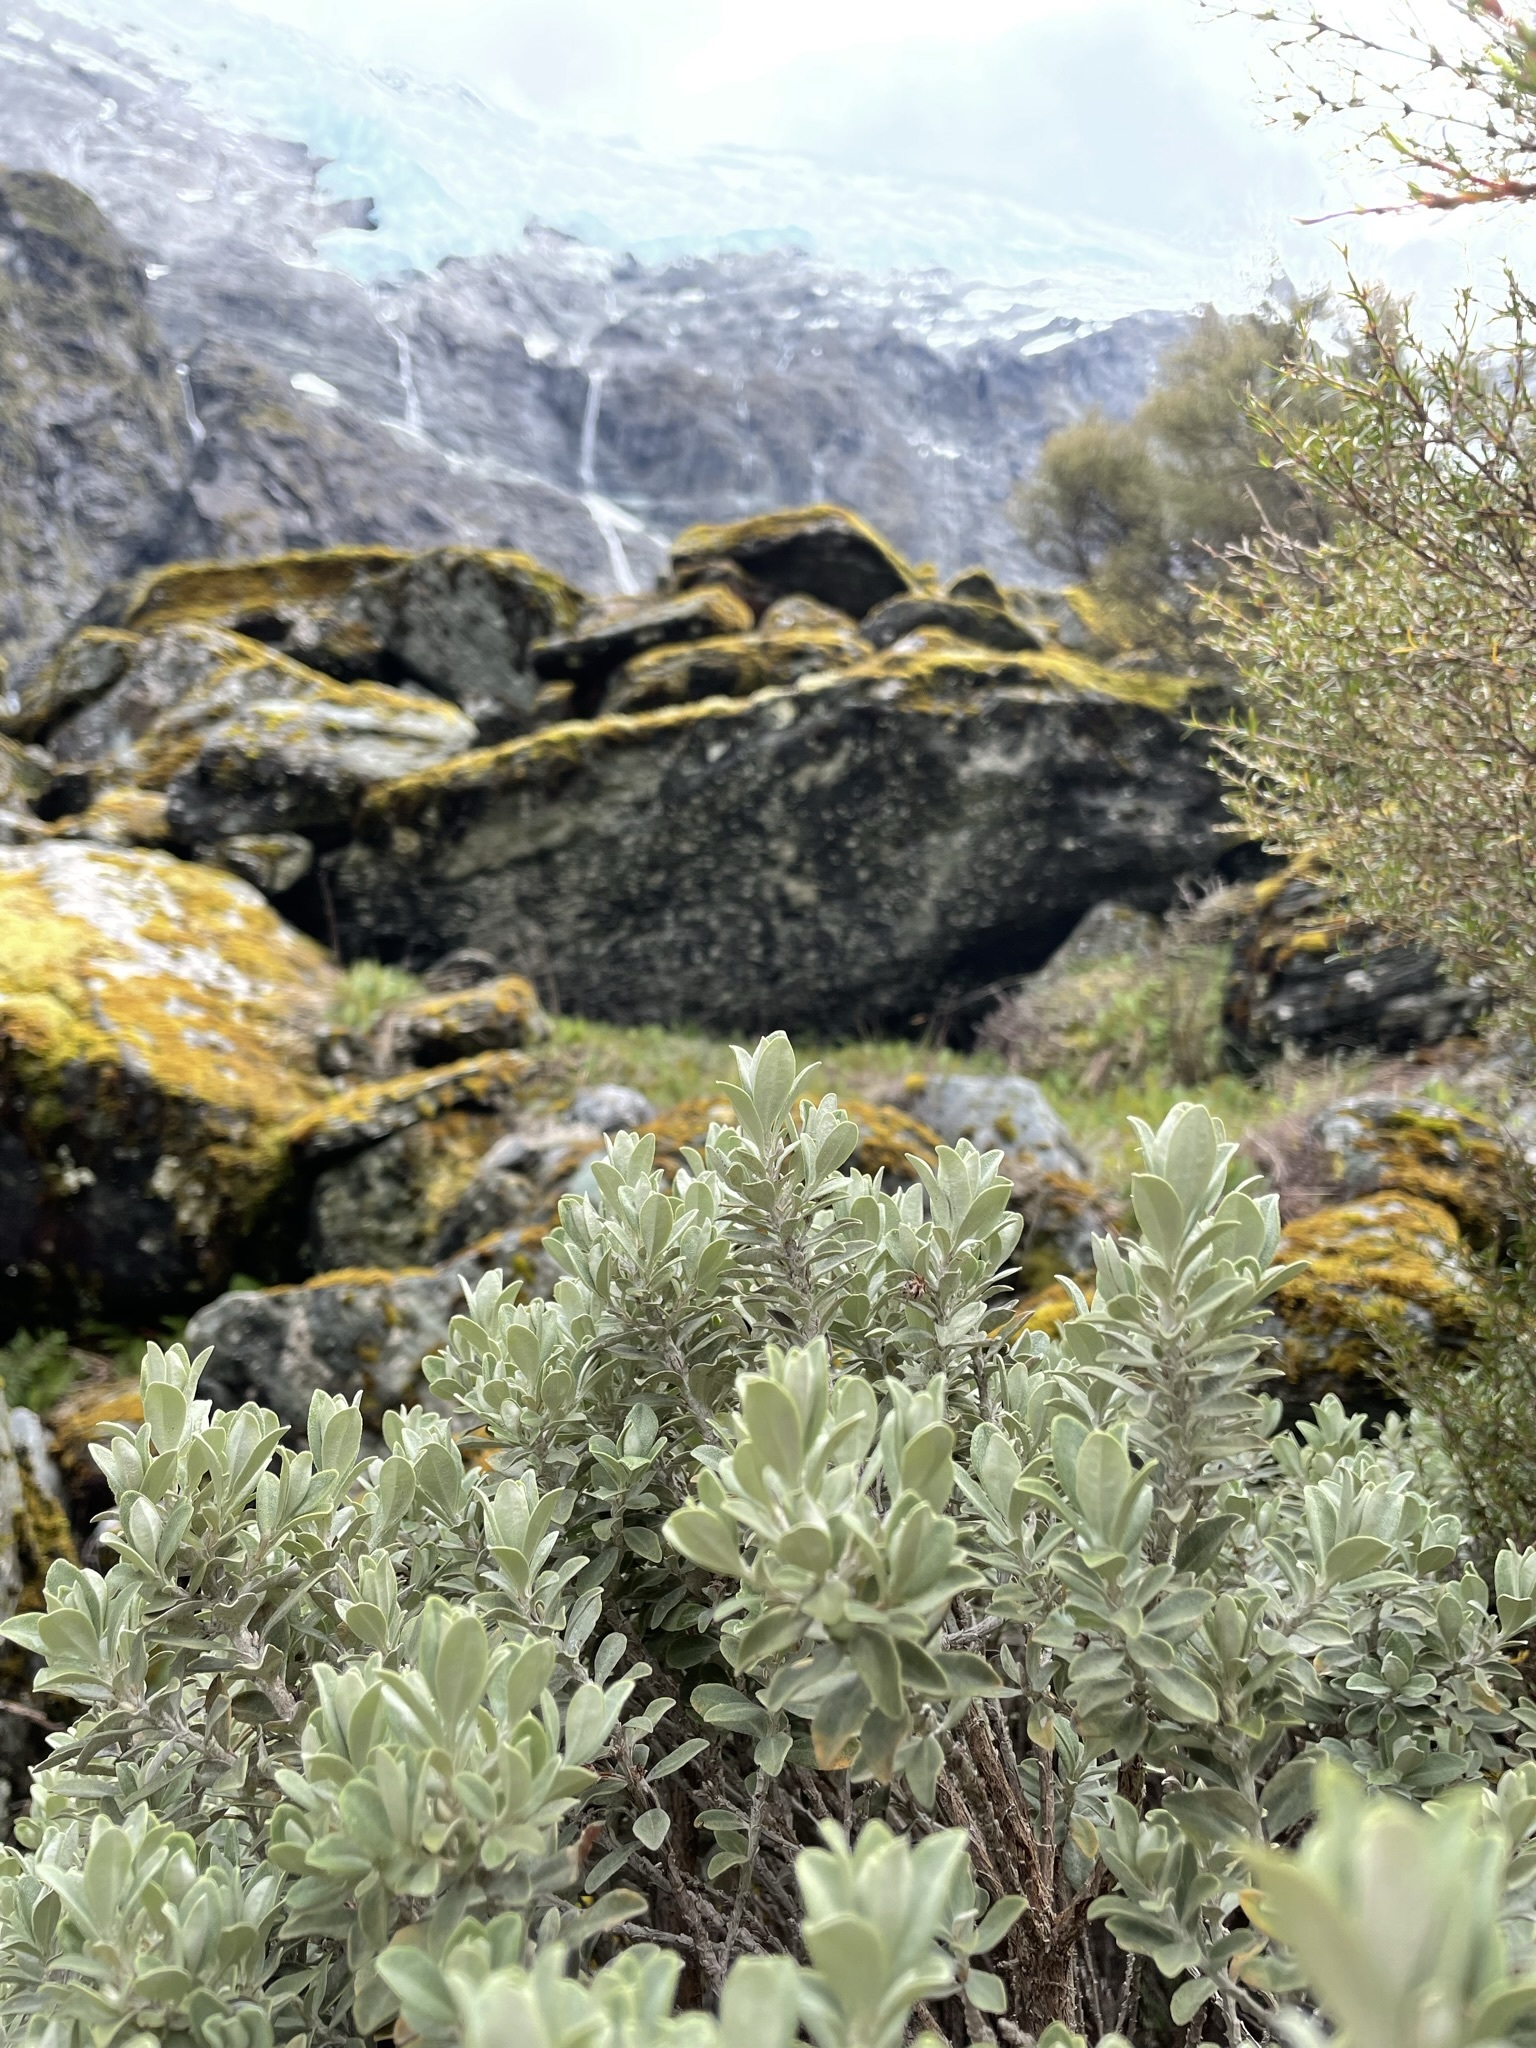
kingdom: Plantae
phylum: Tracheophyta
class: Magnoliopsida
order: Asterales
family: Asteraceae
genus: Olearia
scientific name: Olearia moschata
